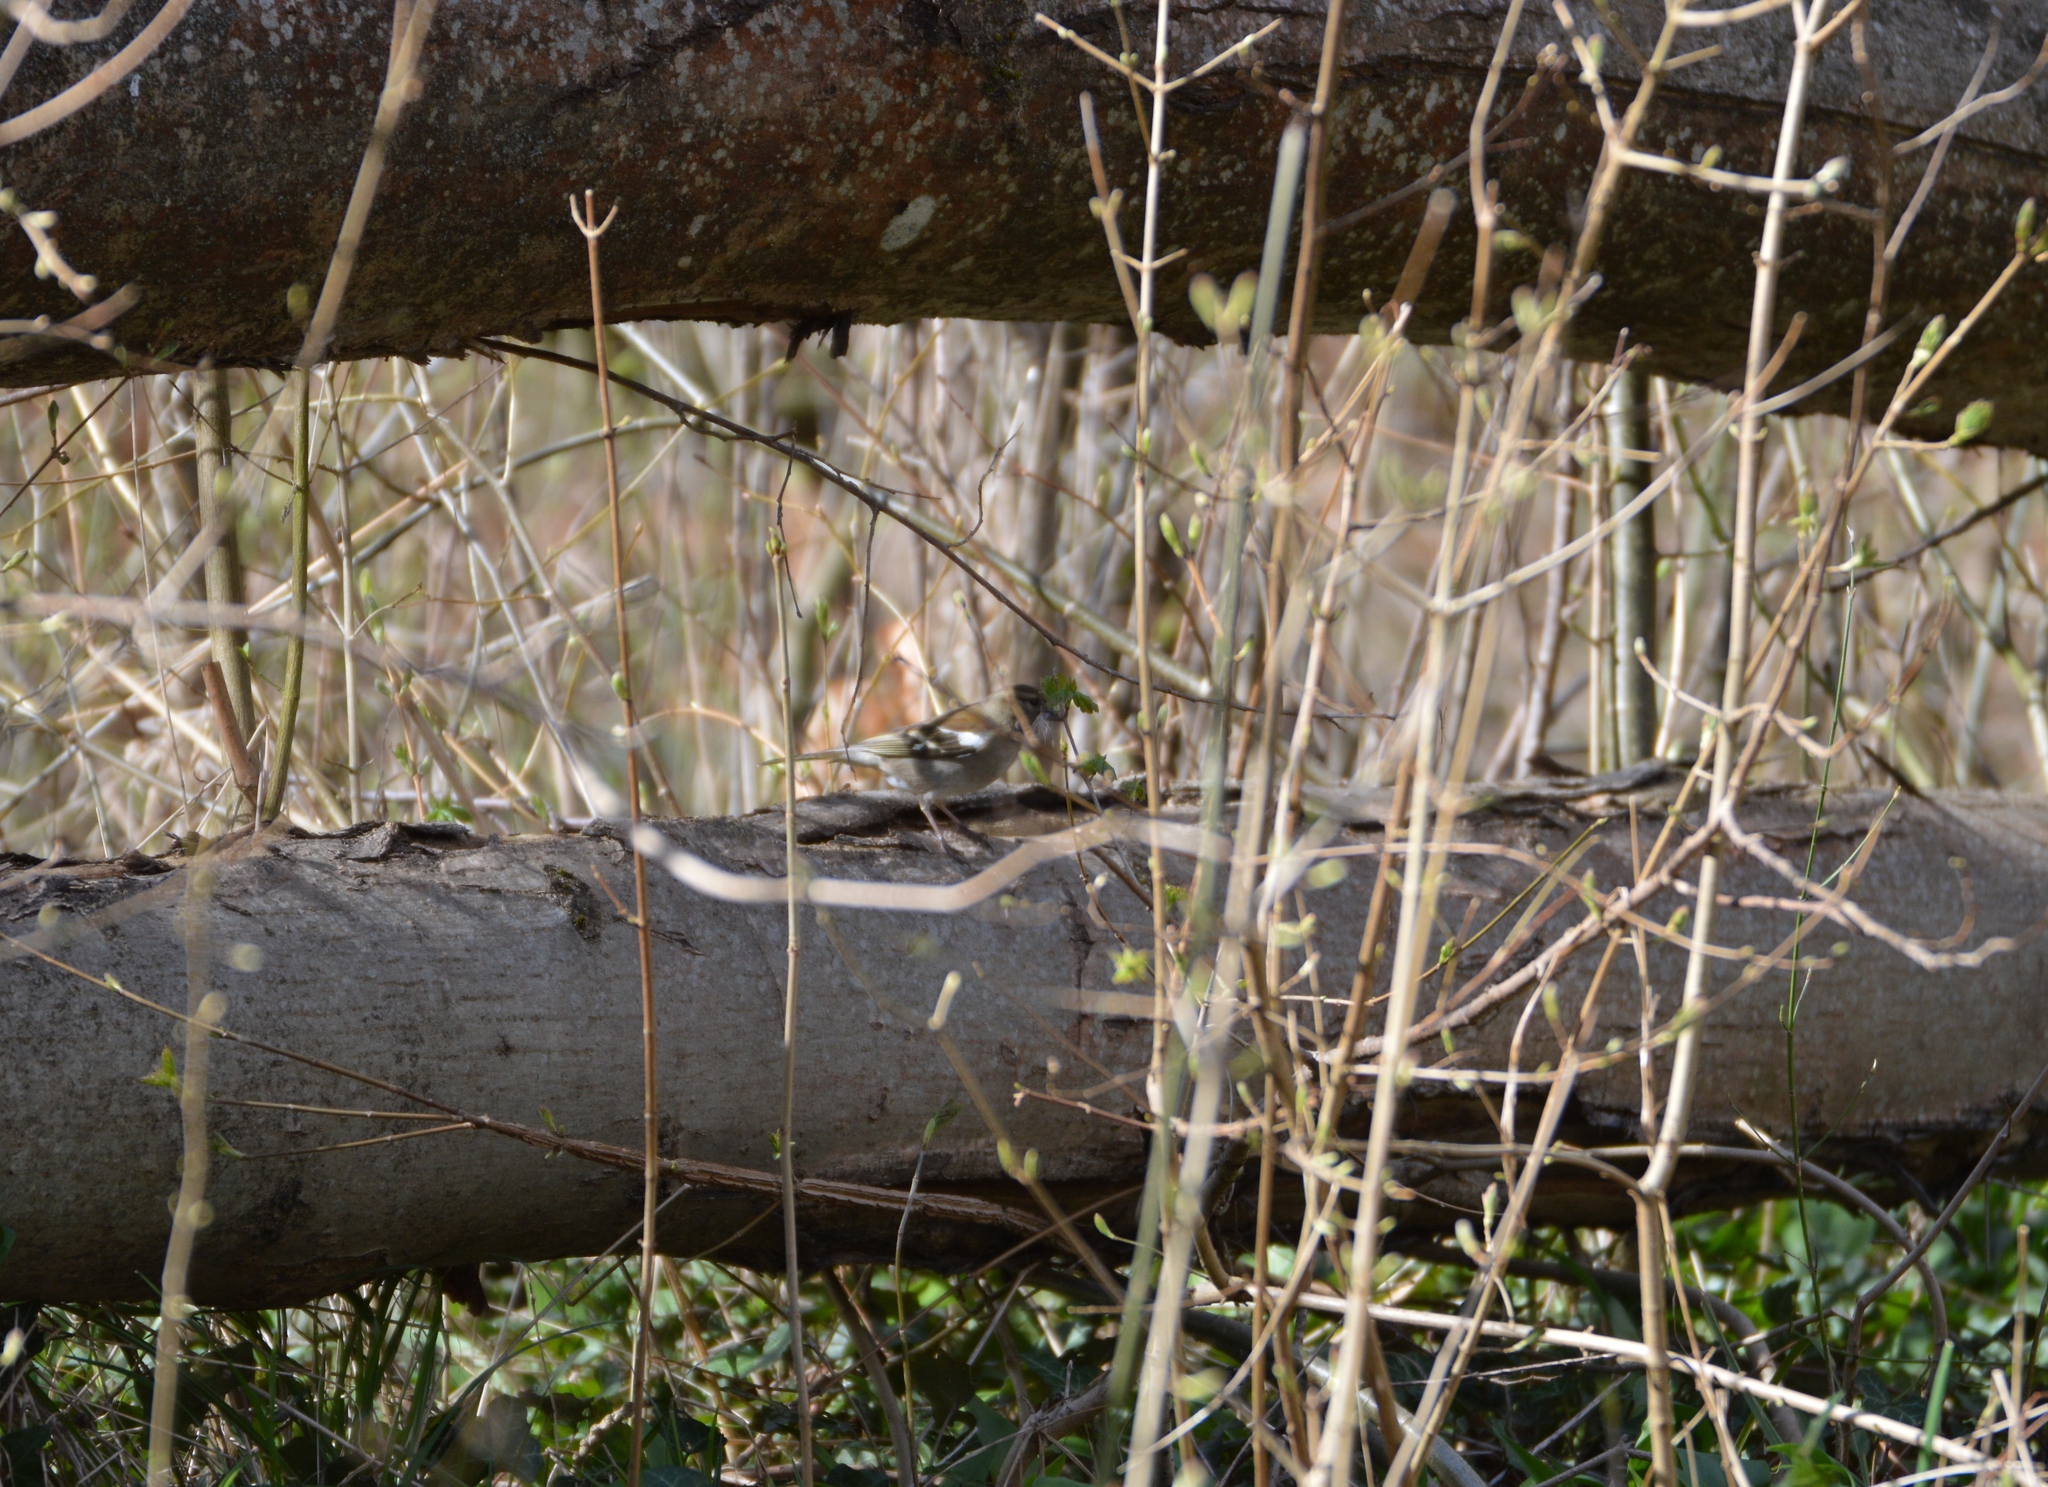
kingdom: Animalia
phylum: Chordata
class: Aves
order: Passeriformes
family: Fringillidae
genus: Fringilla
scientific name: Fringilla coelebs
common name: Common chaffinch
